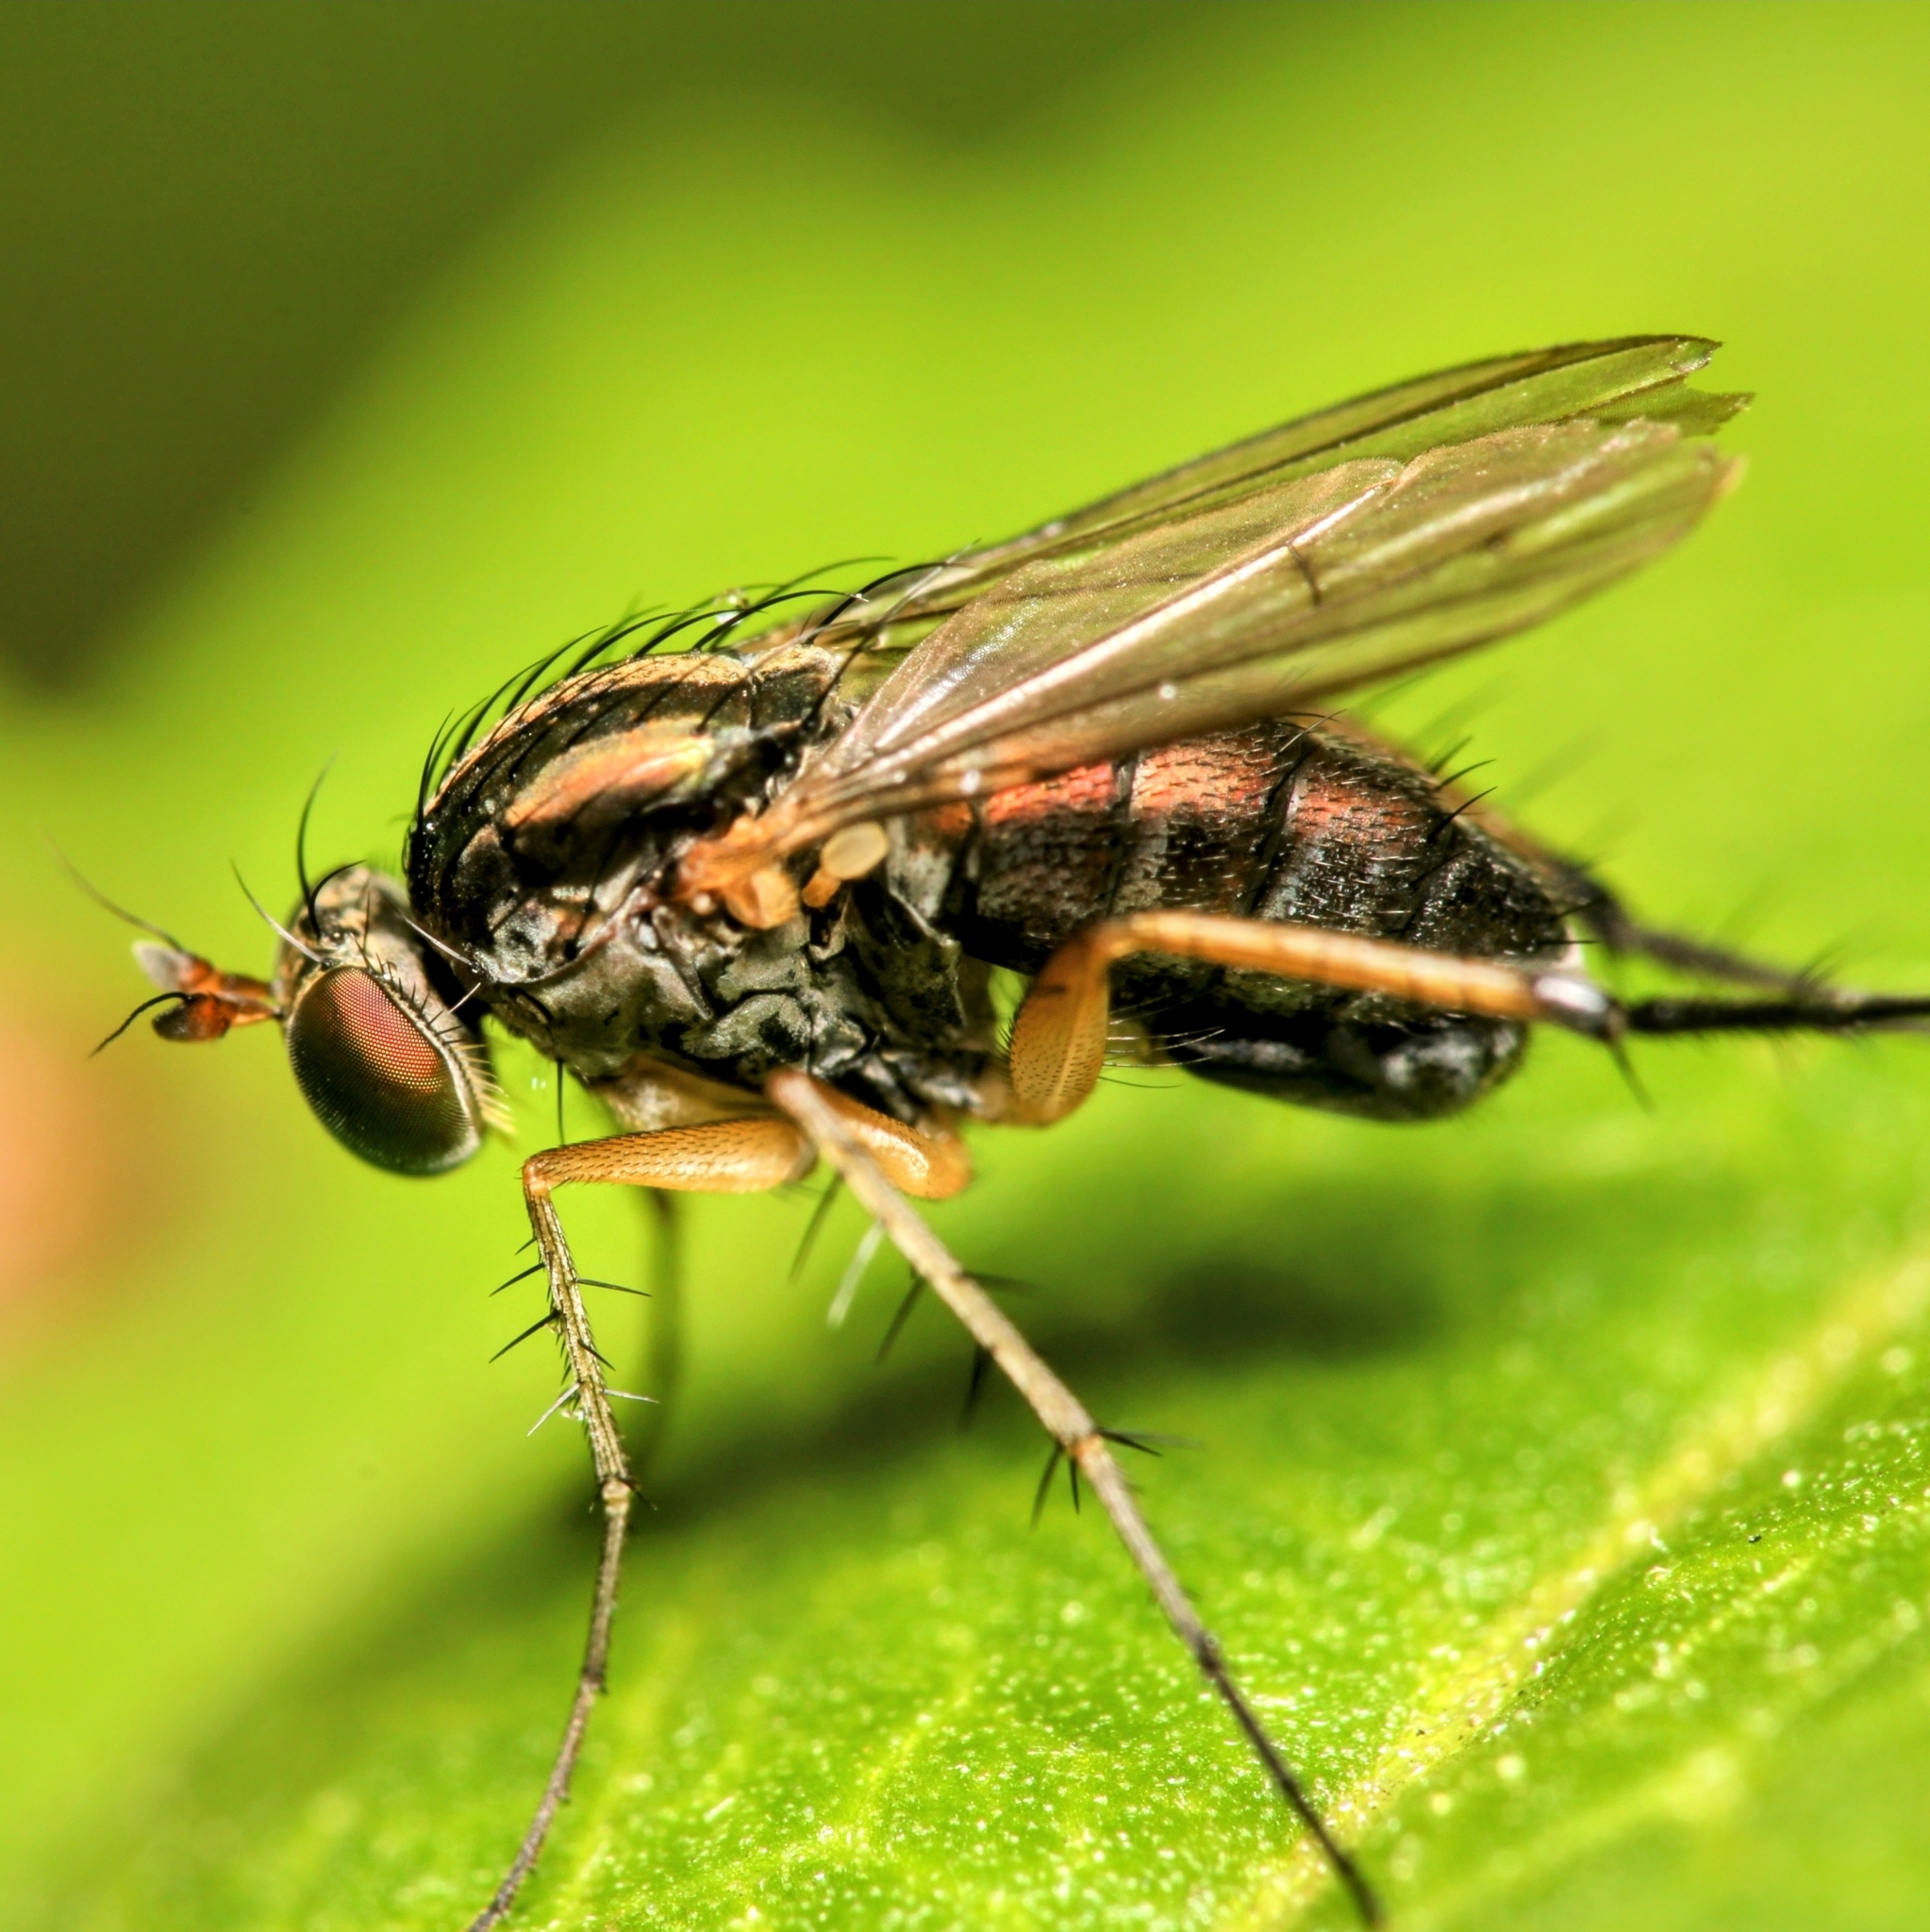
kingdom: Animalia
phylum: Arthropoda
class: Insecta
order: Diptera
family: Dolichopodidae
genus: Dolichopus
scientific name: Dolichopus reflectus
